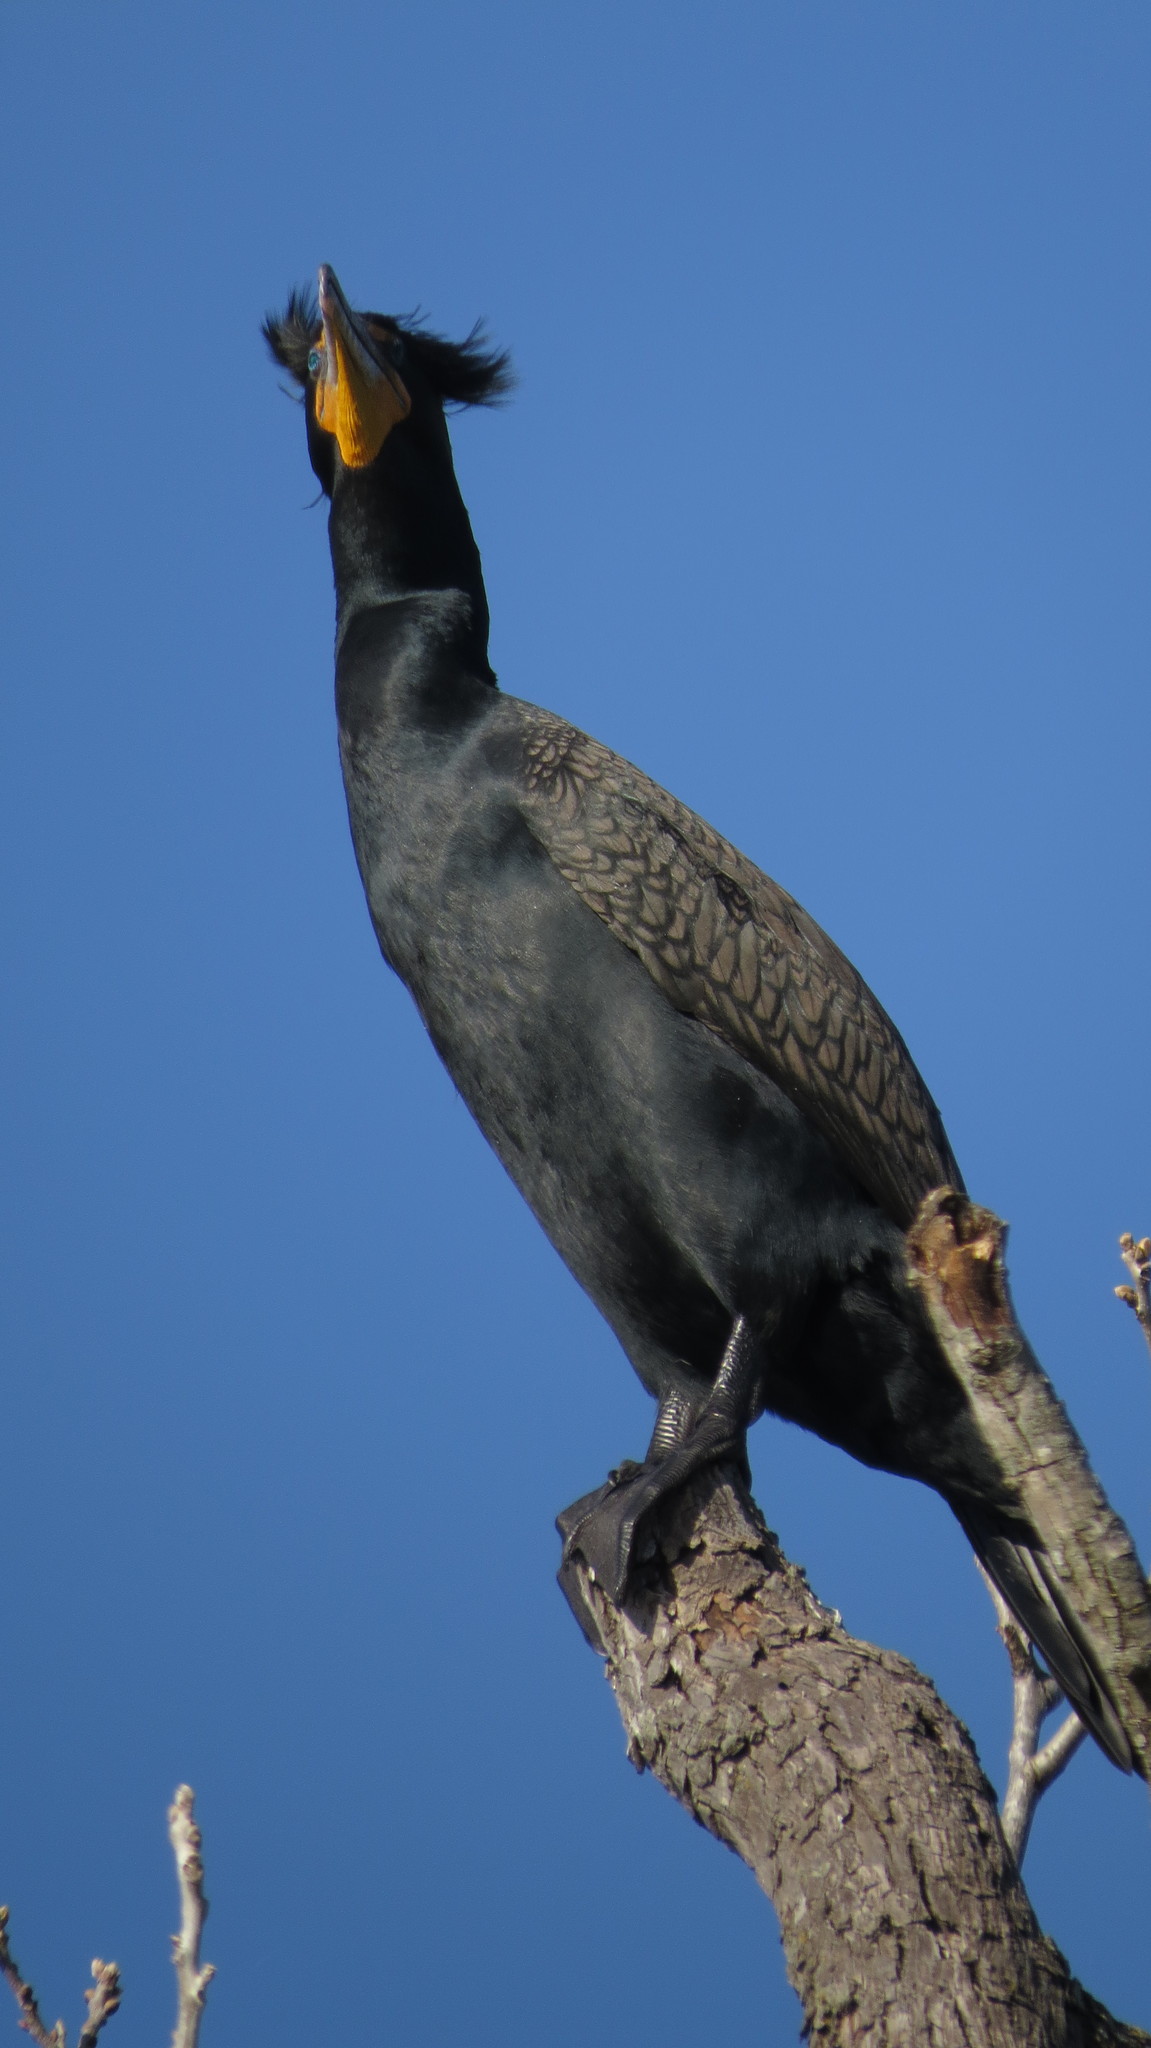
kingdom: Animalia
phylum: Chordata
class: Aves
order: Suliformes
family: Phalacrocoracidae
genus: Phalacrocorax
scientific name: Phalacrocorax auritus
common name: Double-crested cormorant
